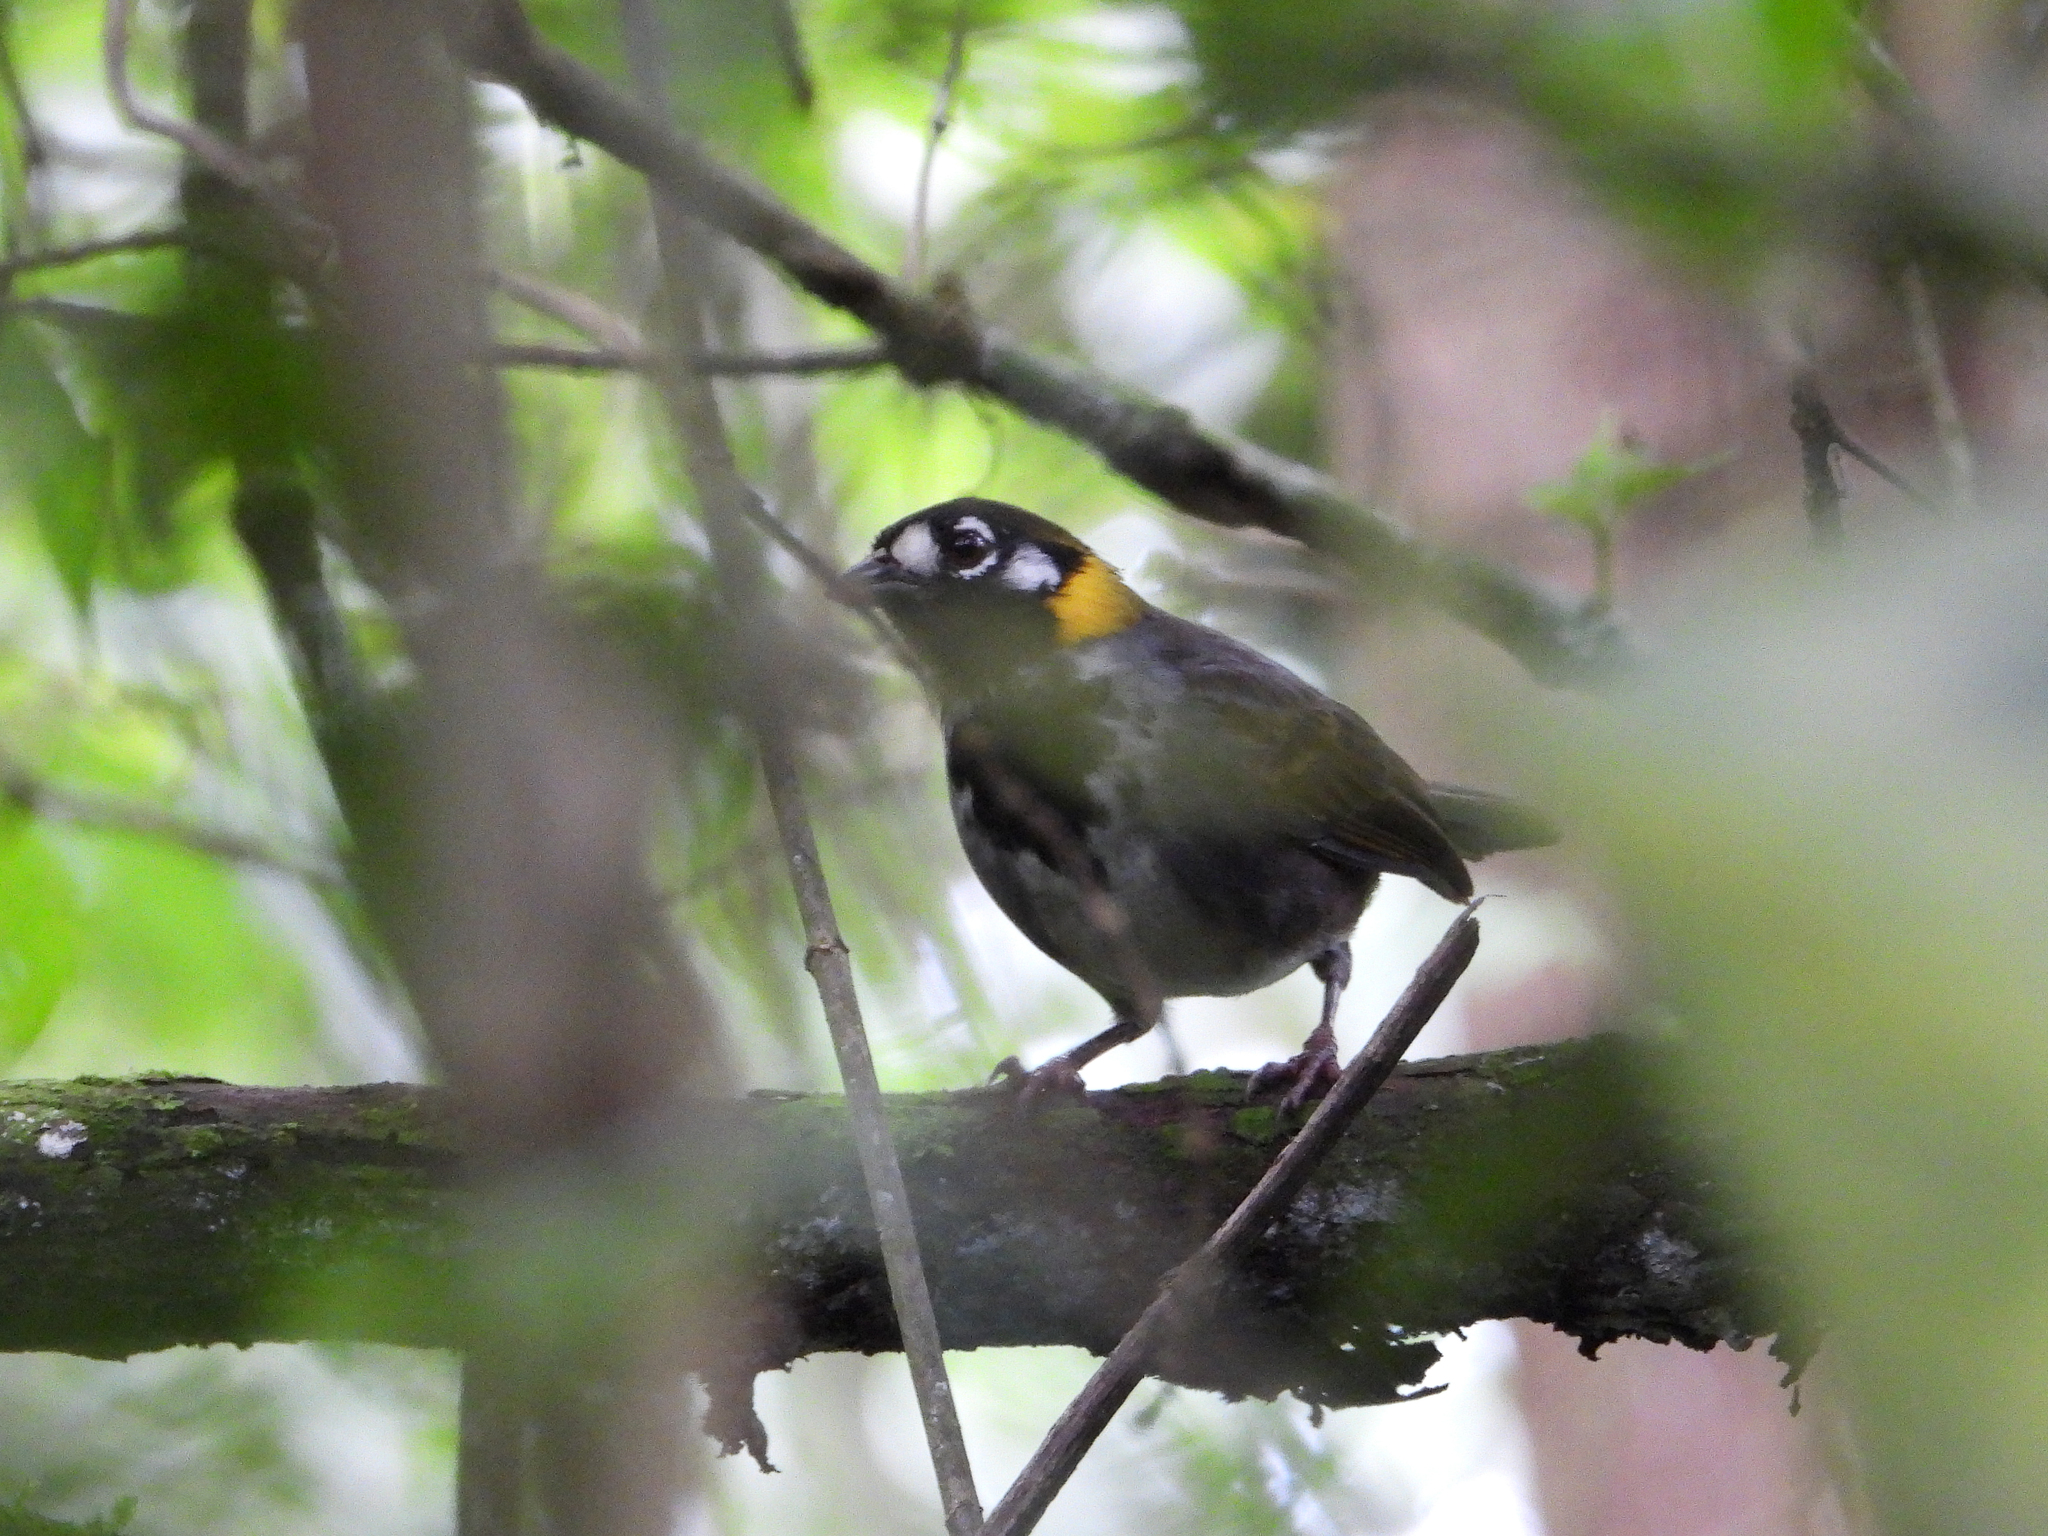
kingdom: Animalia
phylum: Chordata
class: Aves
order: Passeriformes
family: Passerellidae
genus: Melozone
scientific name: Melozone leucotis
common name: White-eared ground-sparrow
